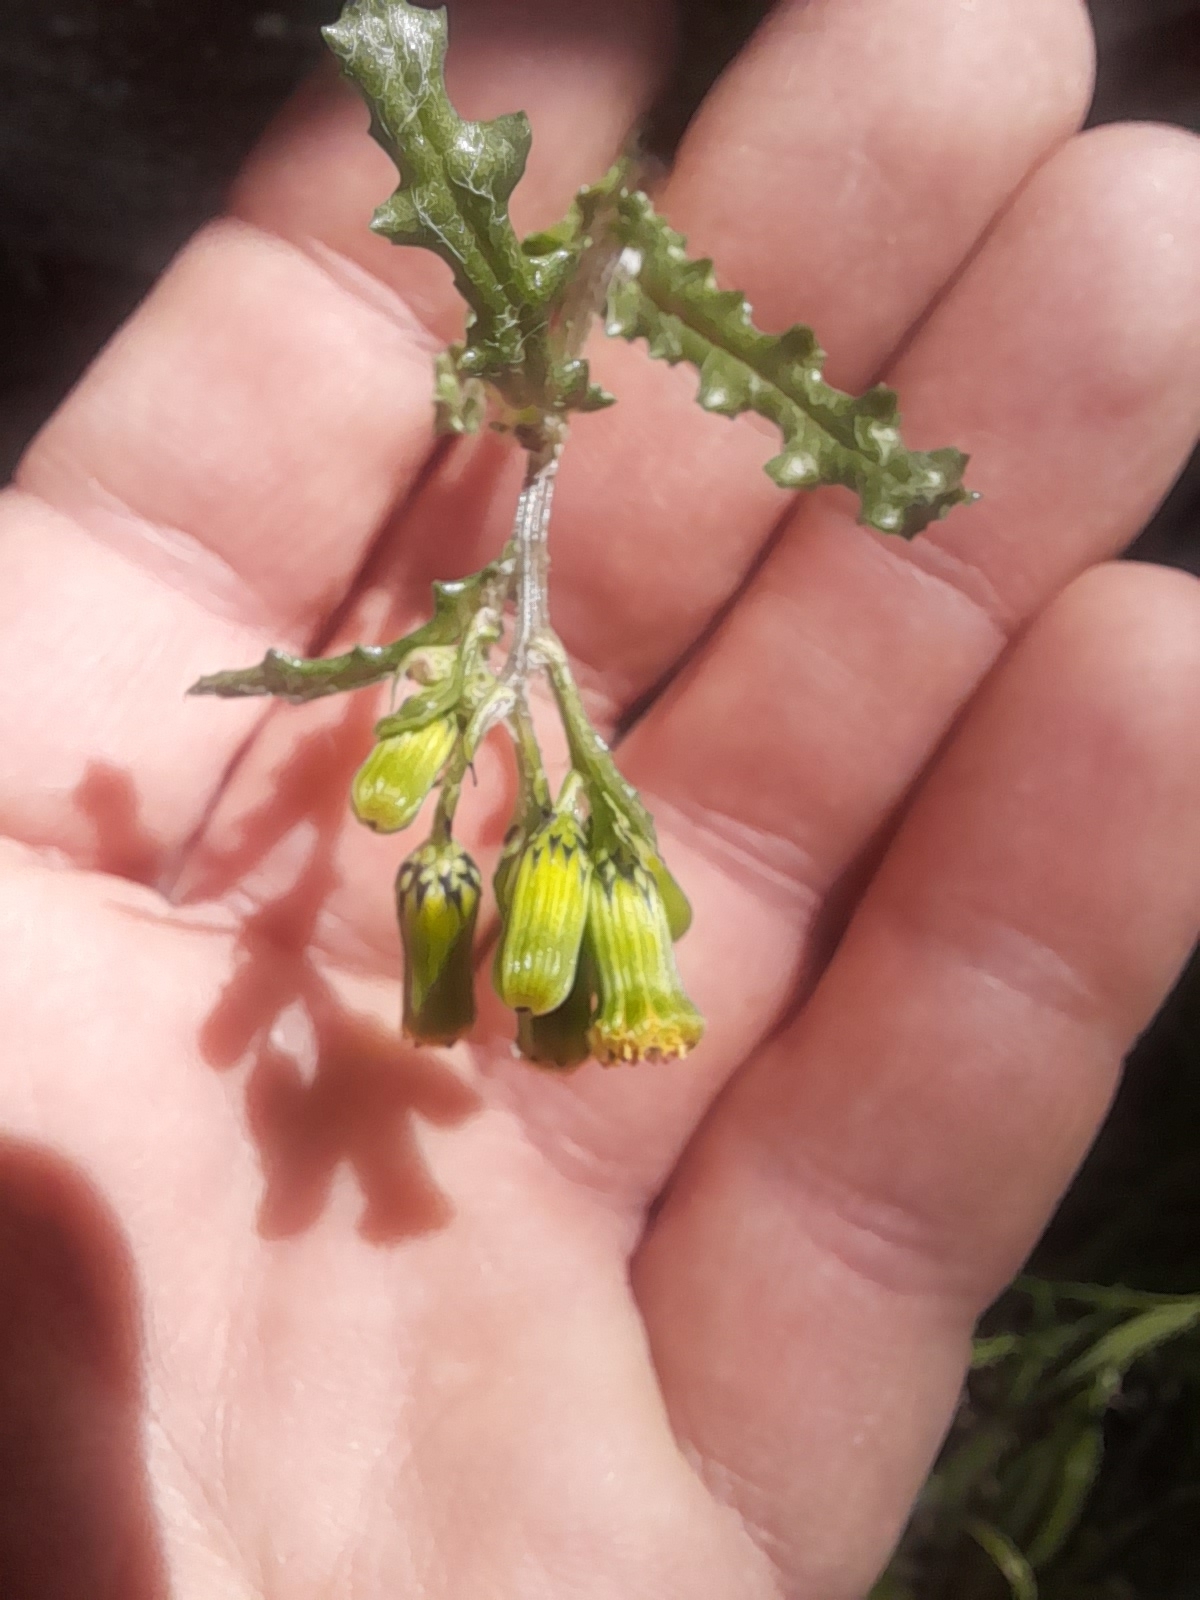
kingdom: Plantae
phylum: Tracheophyta
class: Magnoliopsida
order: Asterales
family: Asteraceae
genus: Senecio
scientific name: Senecio vulgaris
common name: Old-man-in-the-spring
